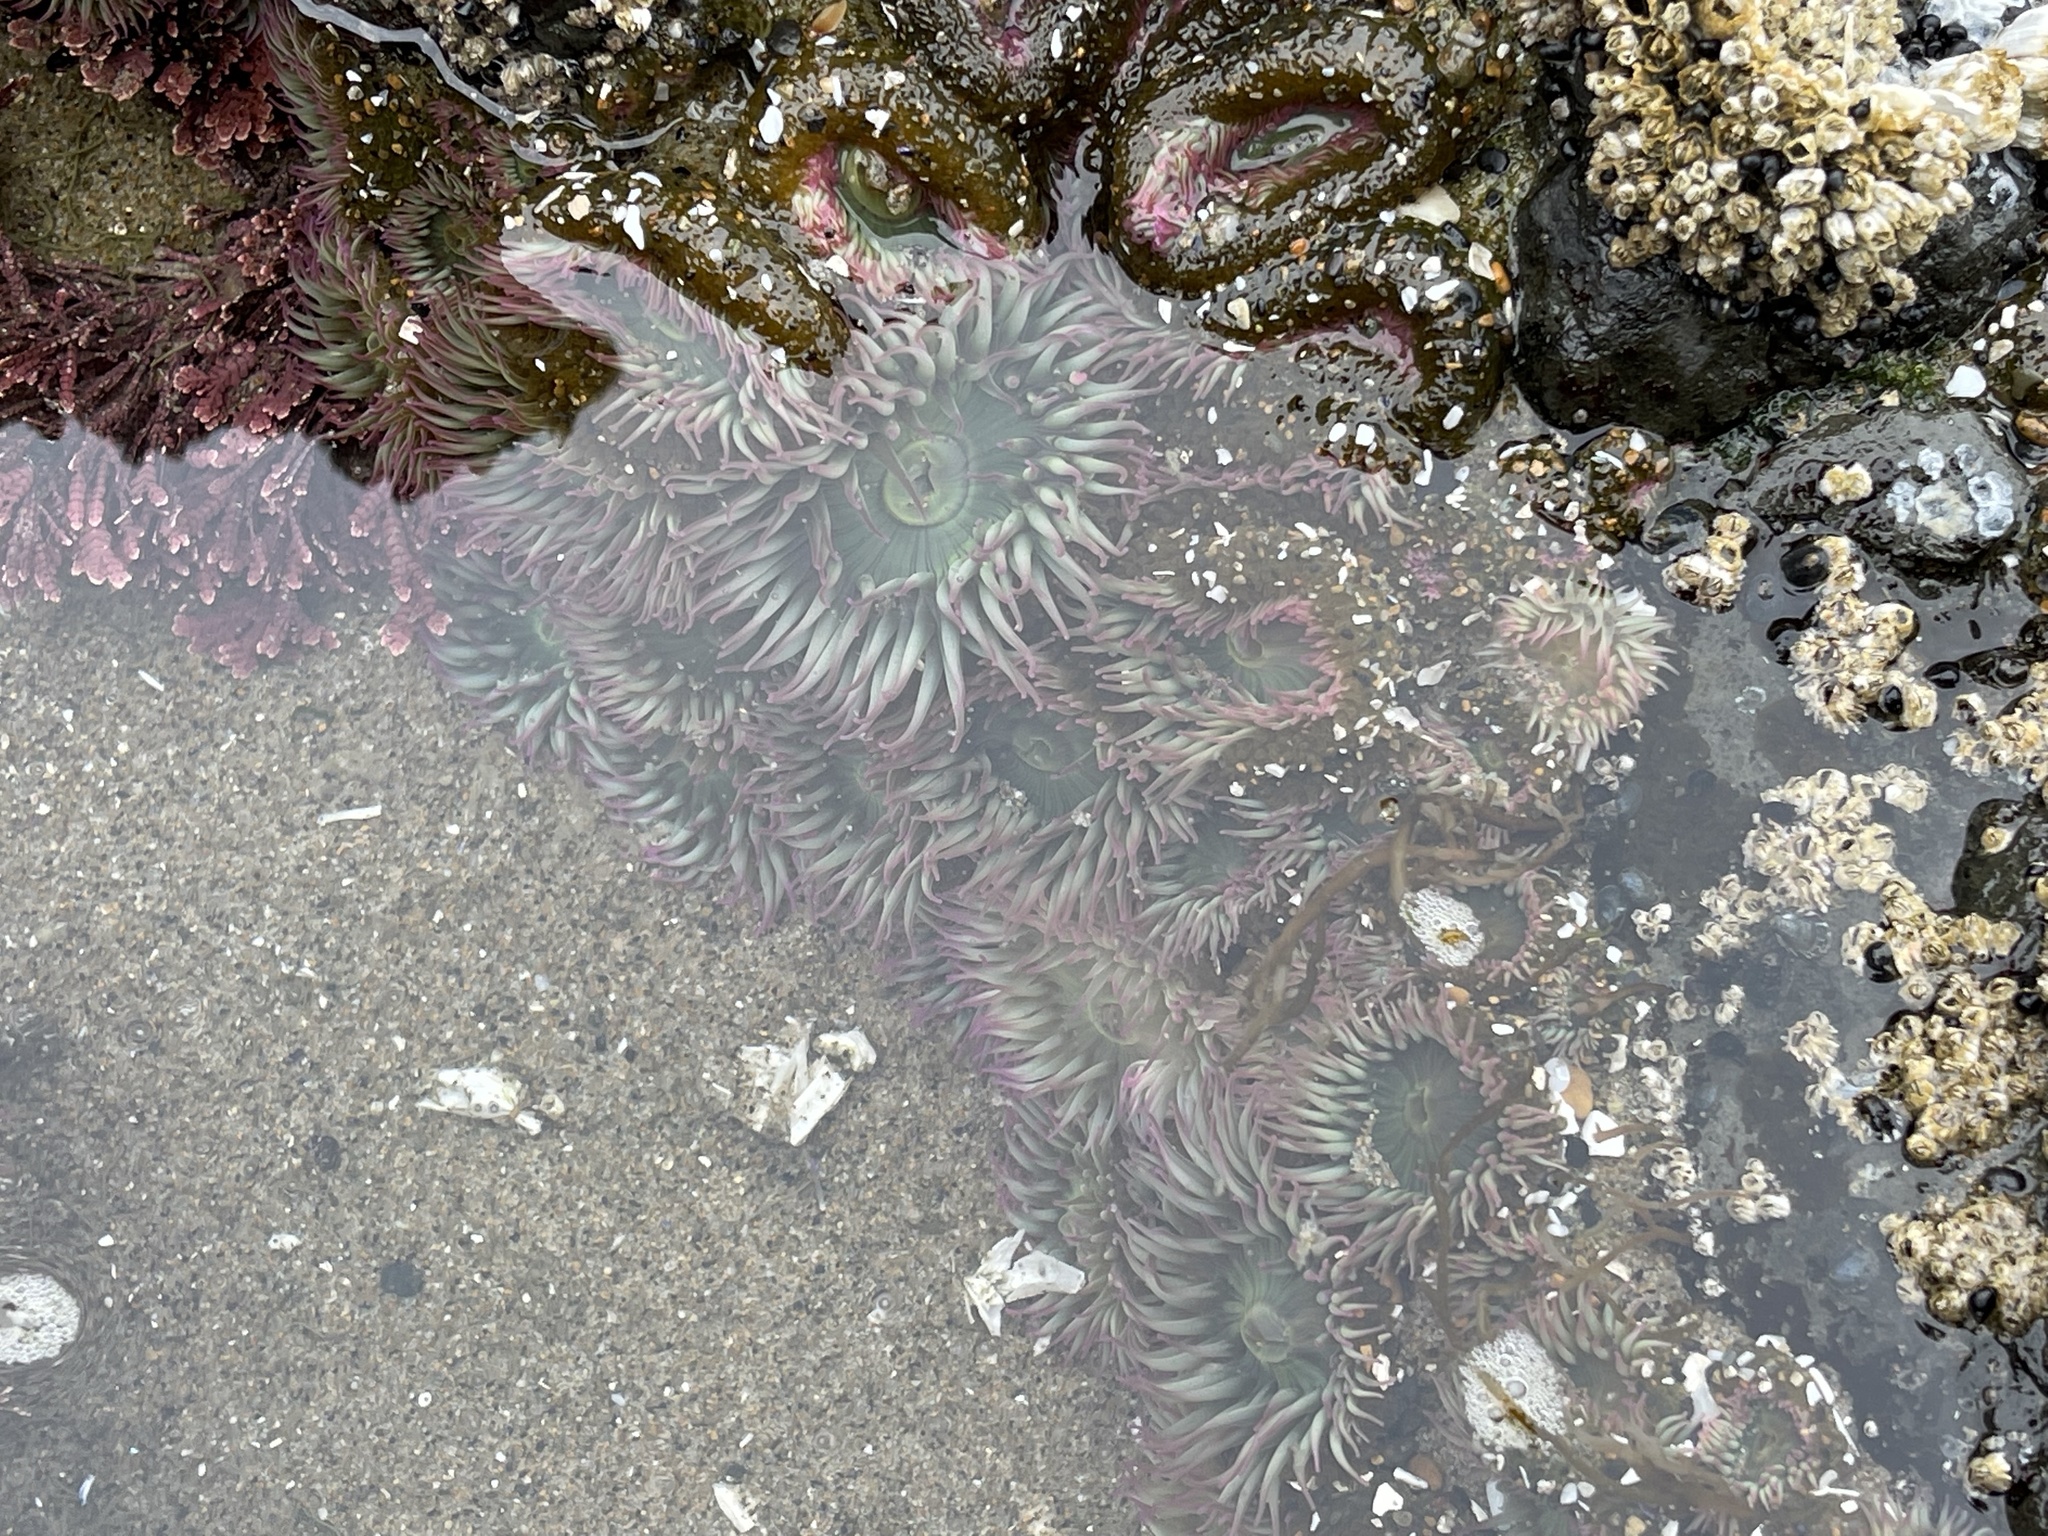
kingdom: Animalia
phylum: Cnidaria
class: Anthozoa
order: Actiniaria
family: Actiniidae
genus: Anthopleura
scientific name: Anthopleura elegantissima
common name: Clonal anemone
